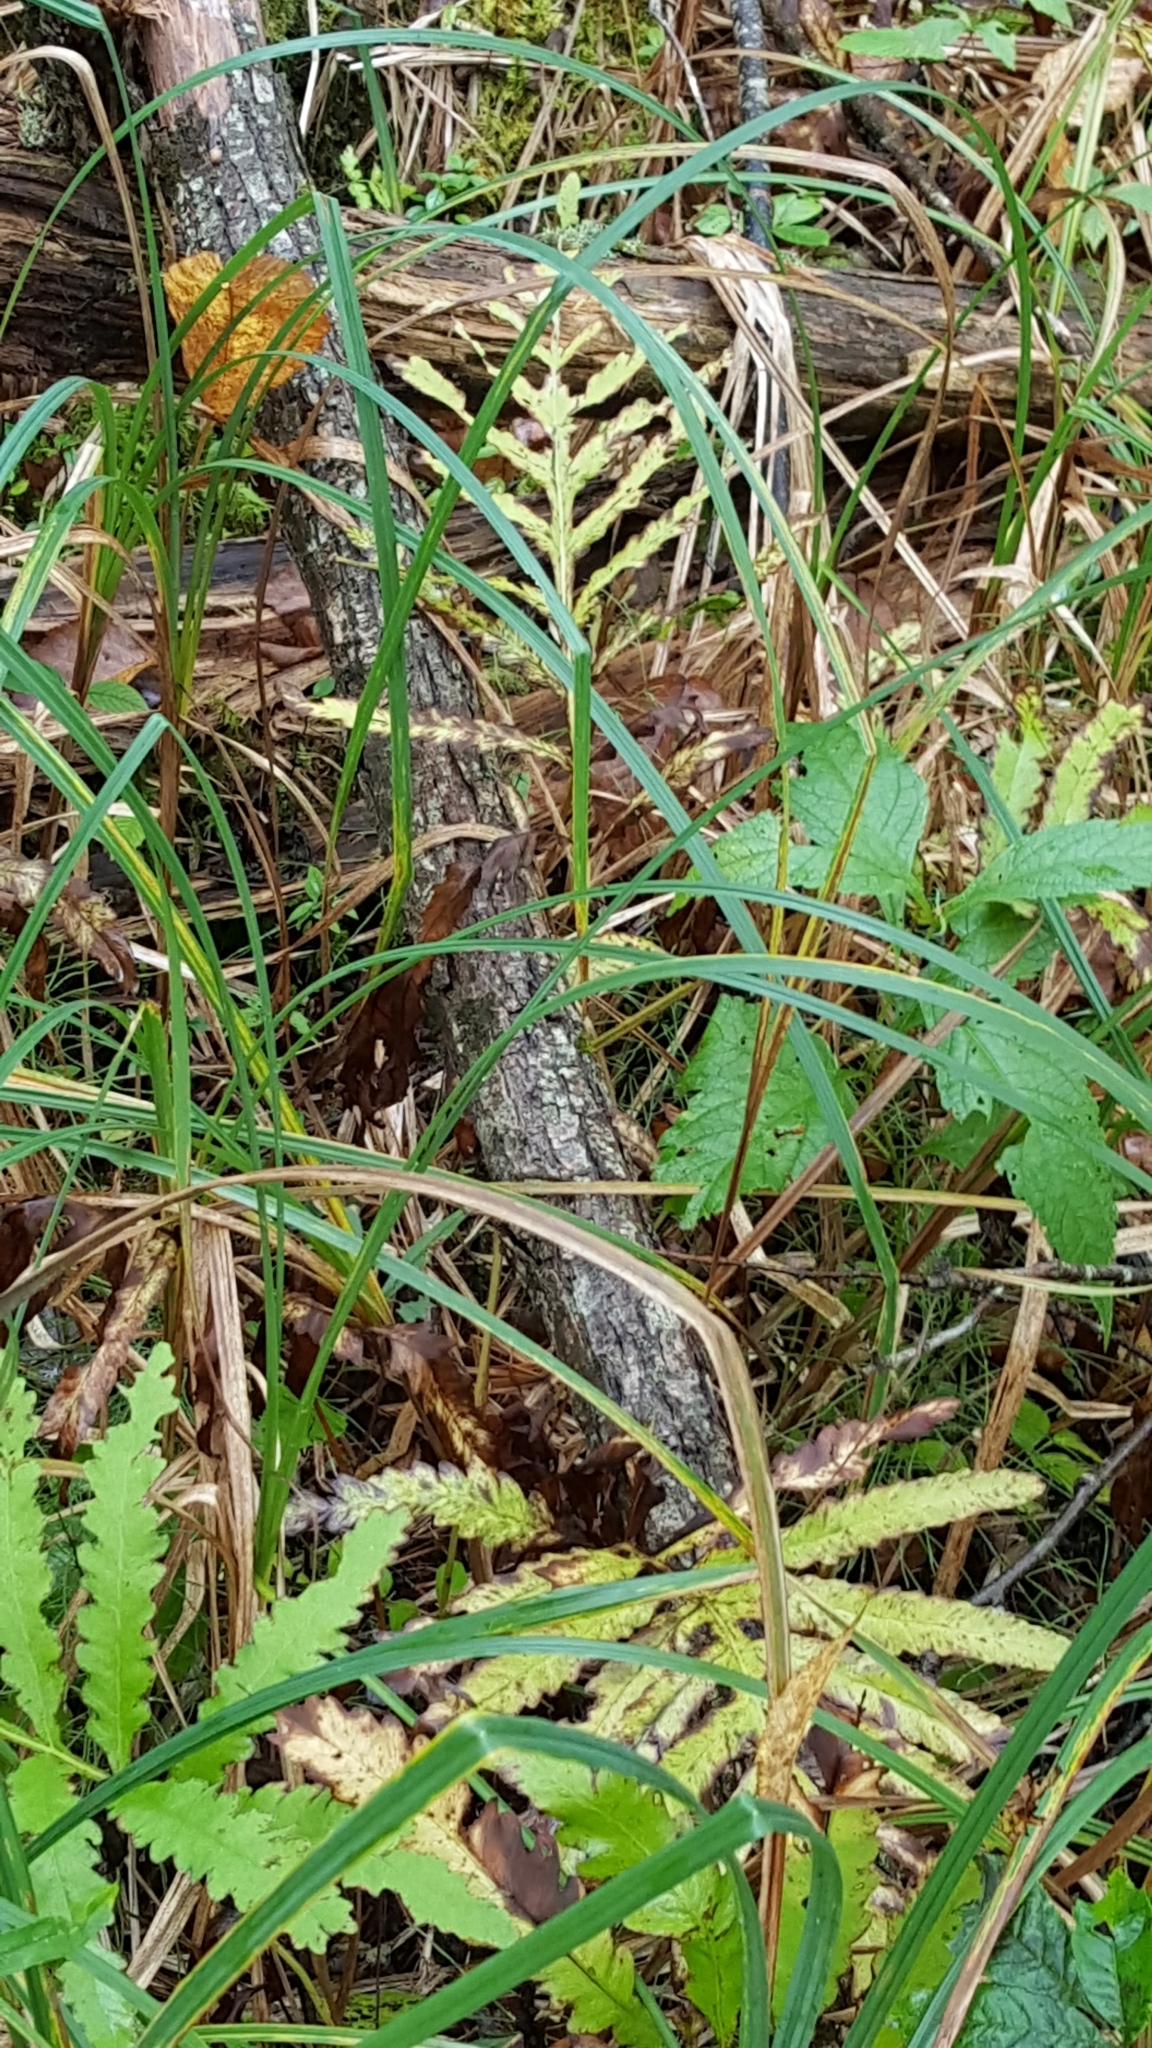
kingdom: Plantae
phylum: Tracheophyta
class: Polypodiopsida
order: Polypodiales
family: Onocleaceae
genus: Onoclea
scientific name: Onoclea sensibilis
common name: Sensitive fern
